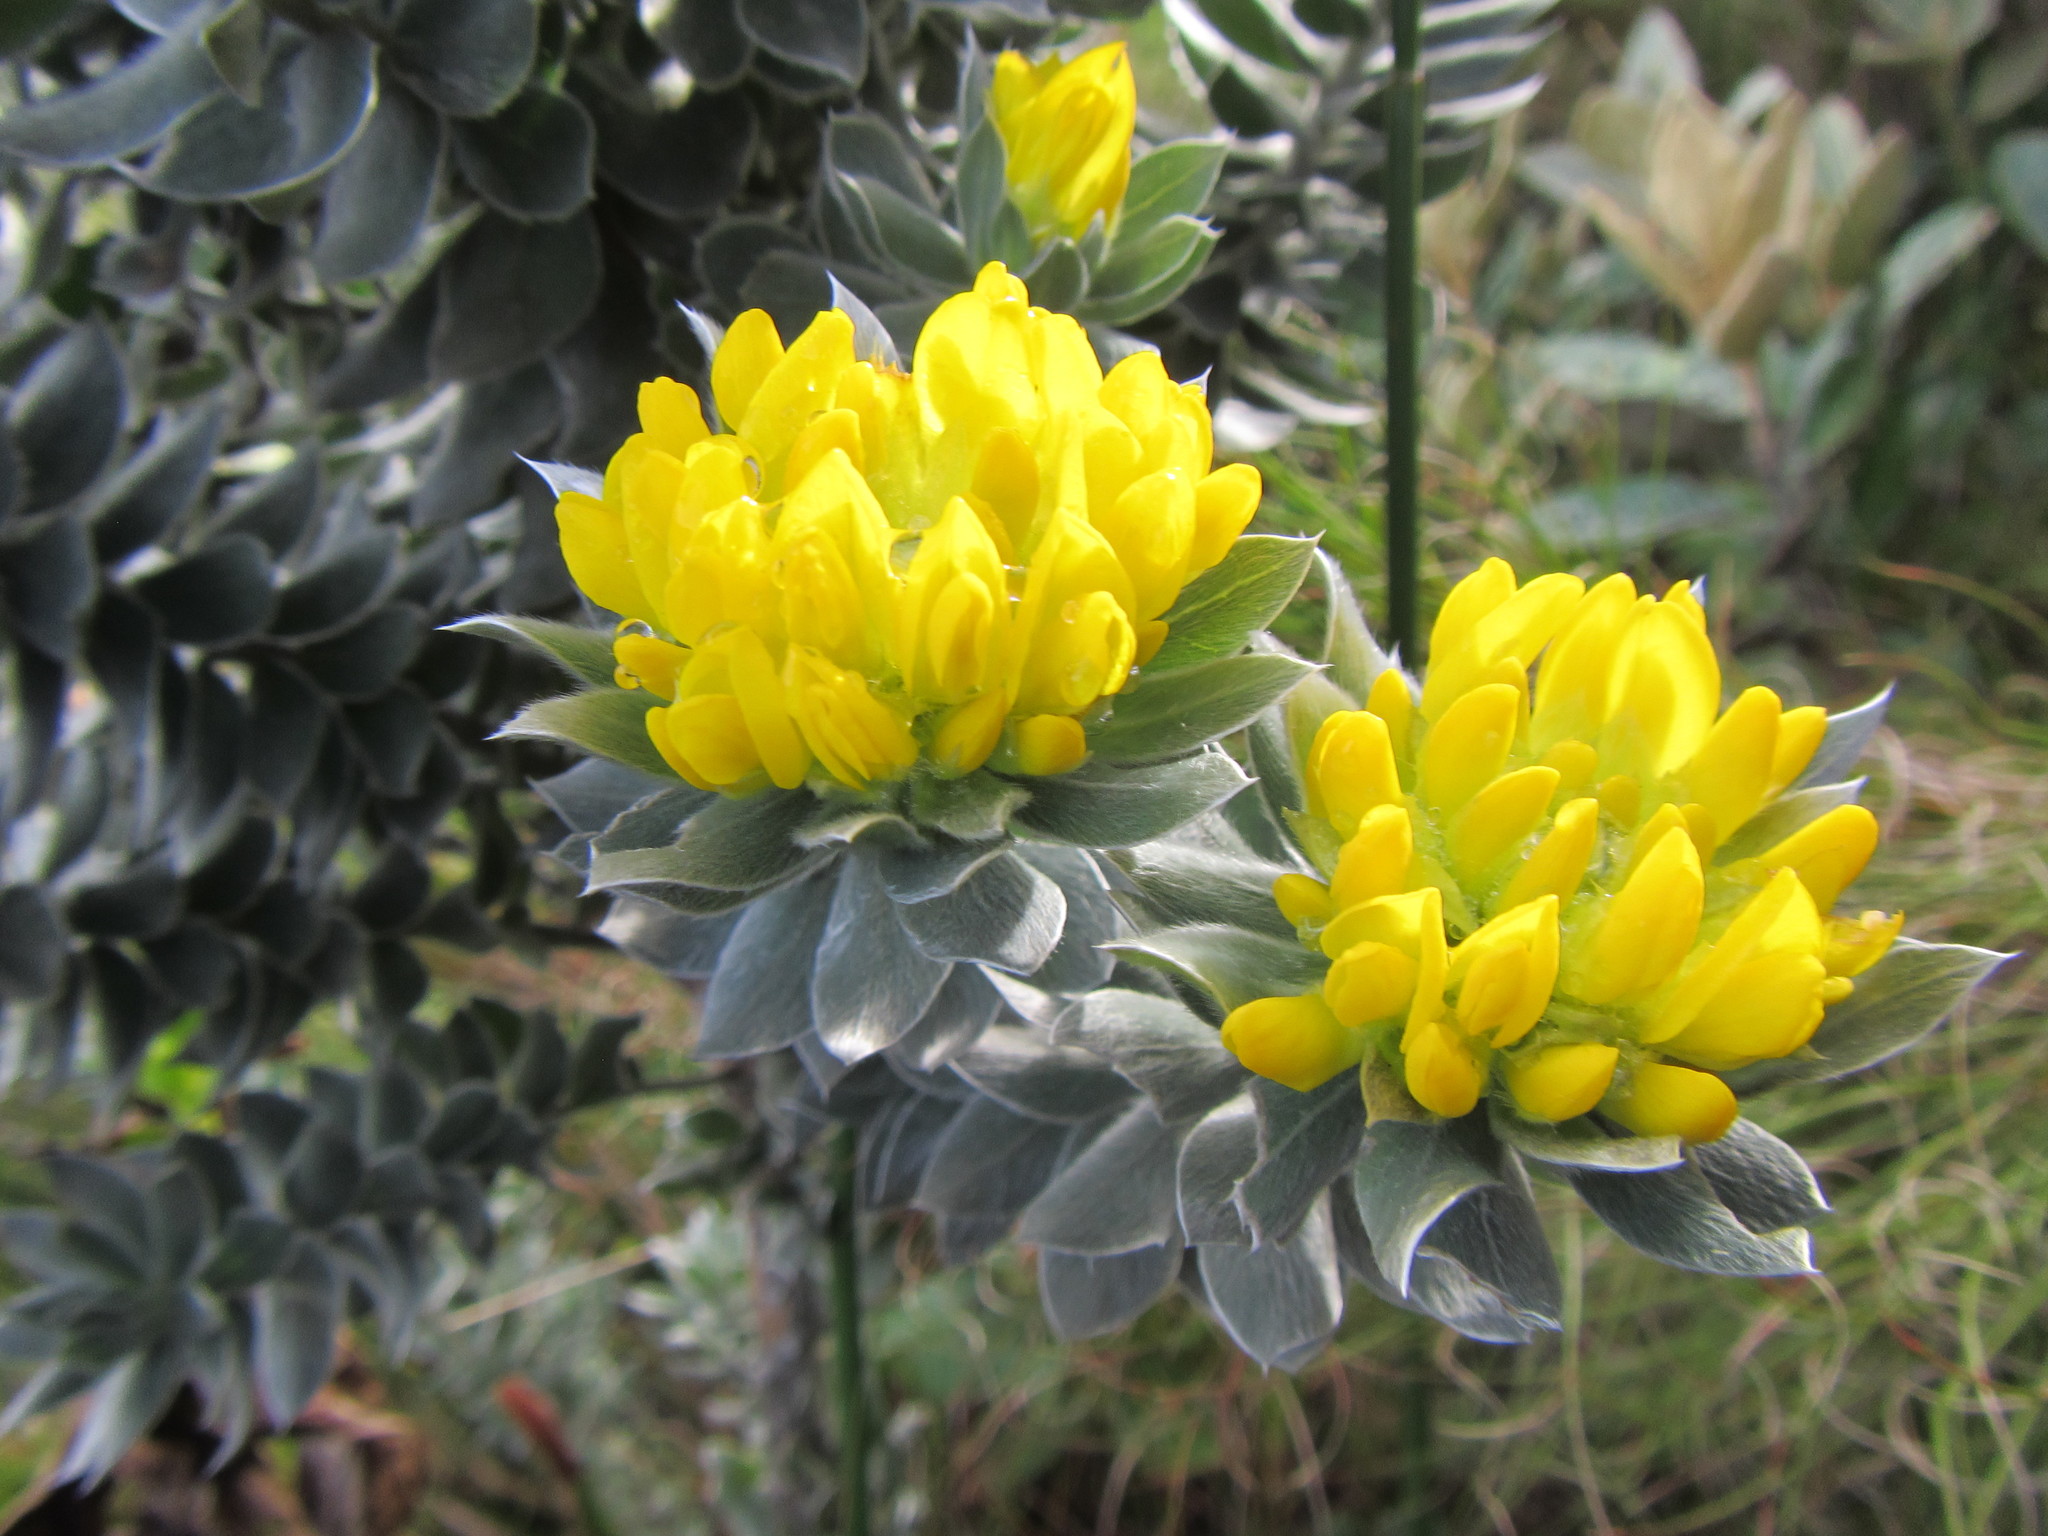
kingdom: Plantae
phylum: Tracheophyta
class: Magnoliopsida
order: Fabales
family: Fabaceae
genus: Xiphotheca
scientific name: Xiphotheca fruticosa
